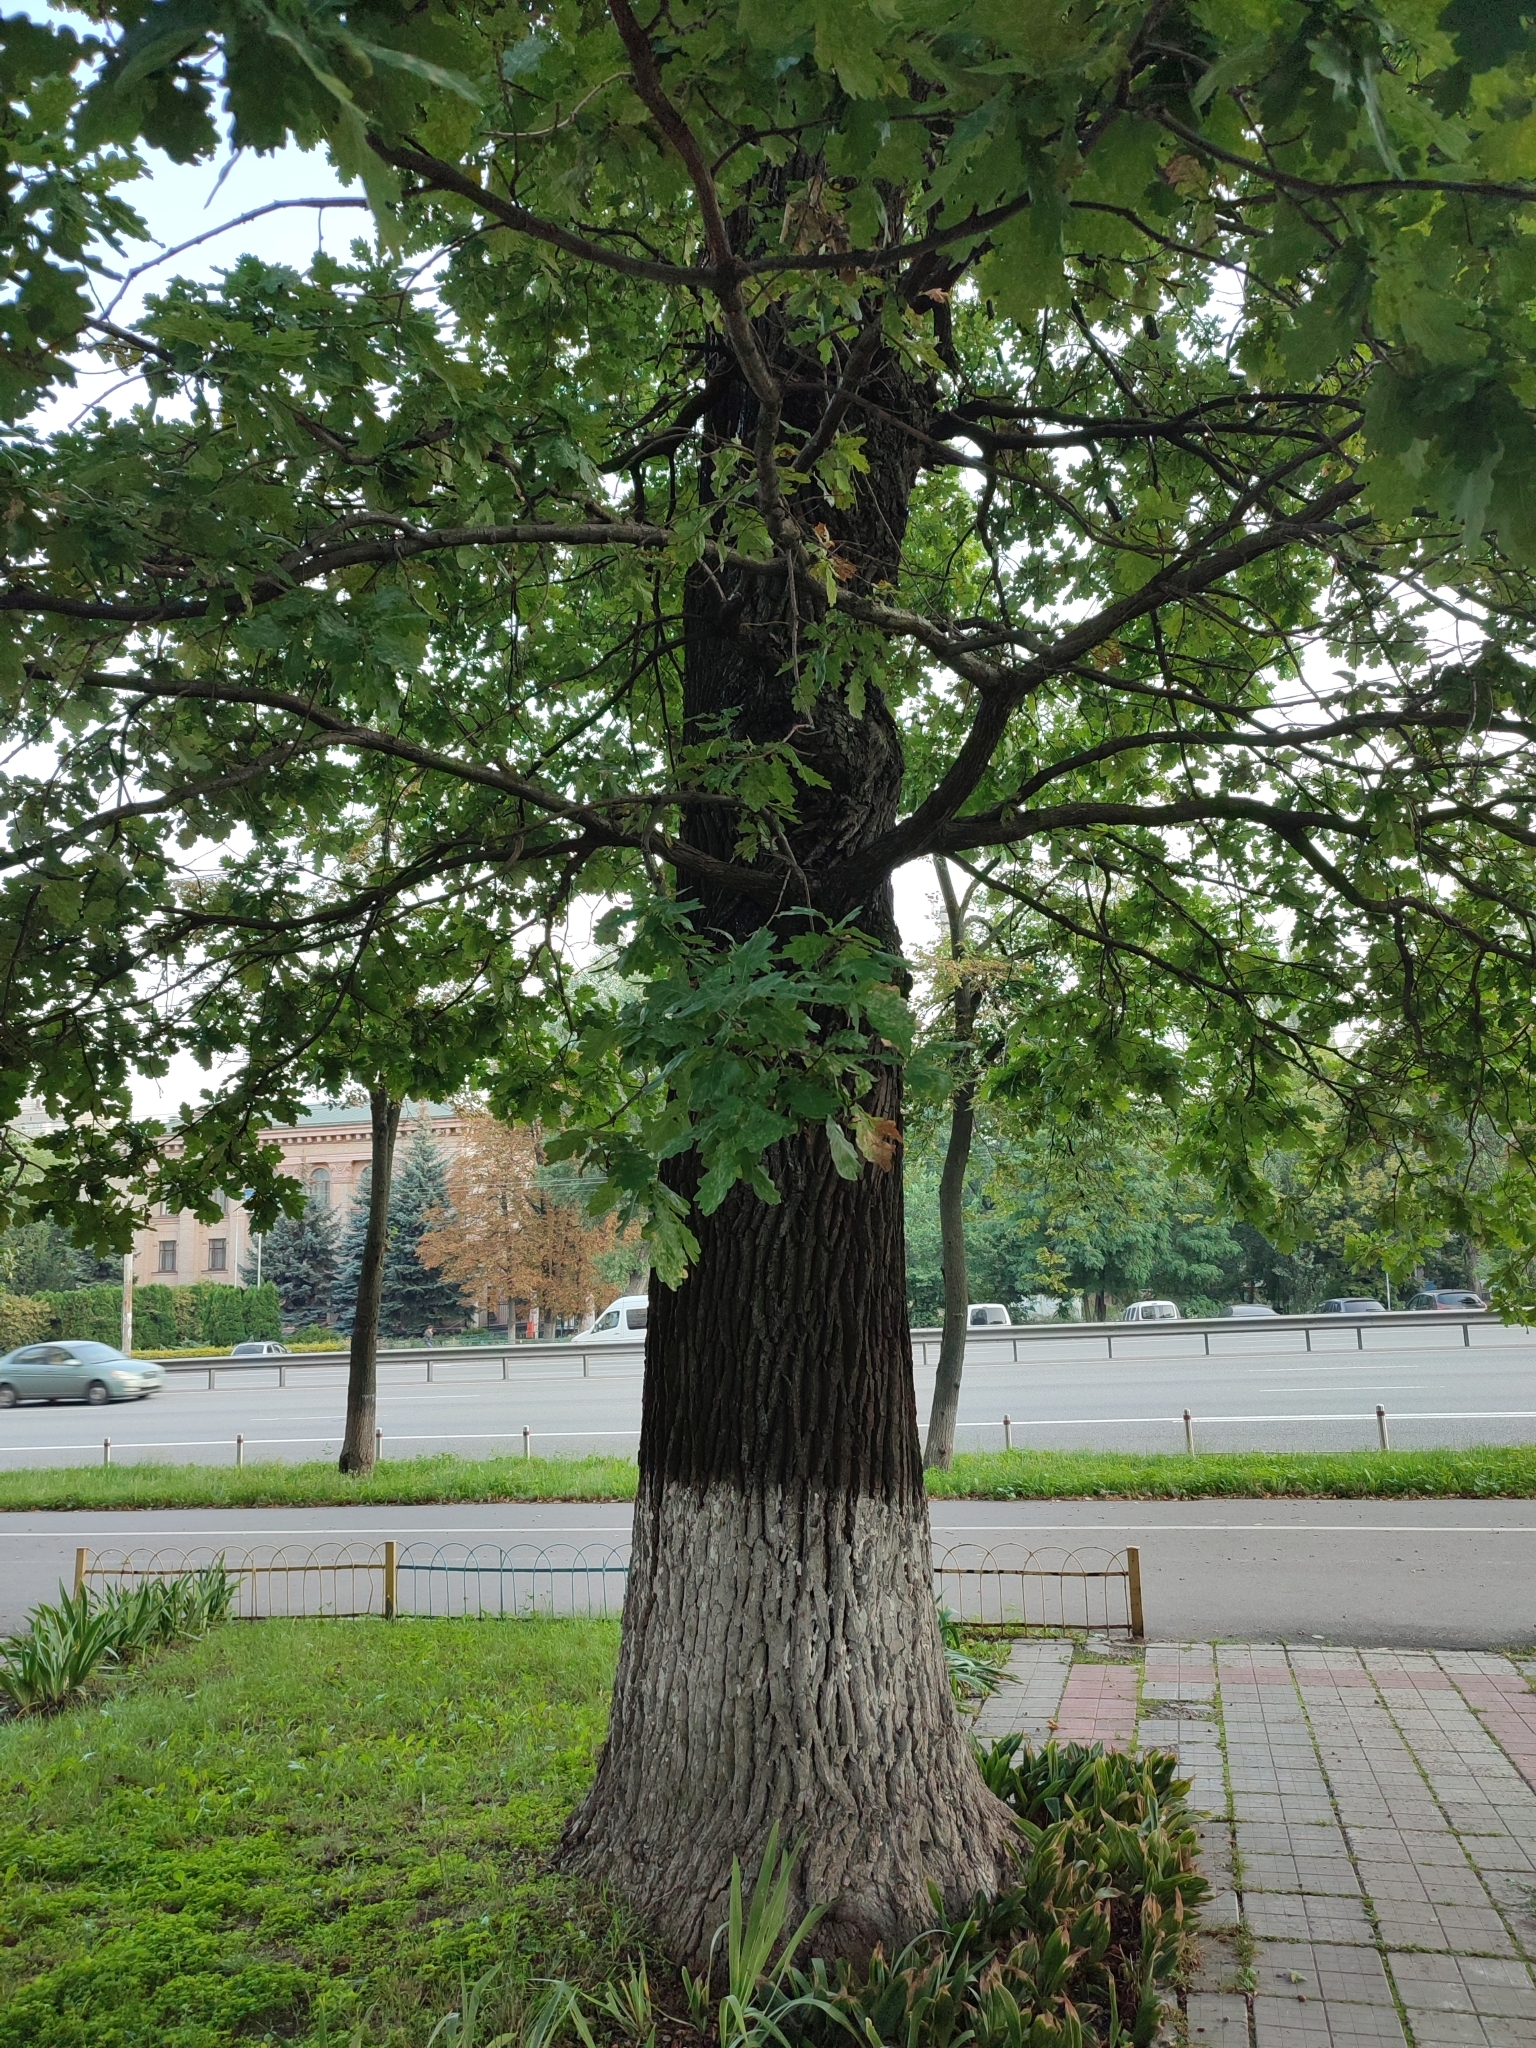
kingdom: Plantae
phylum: Tracheophyta
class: Magnoliopsida
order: Fagales
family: Fagaceae
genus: Quercus
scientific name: Quercus robur
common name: Pedunculate oak
